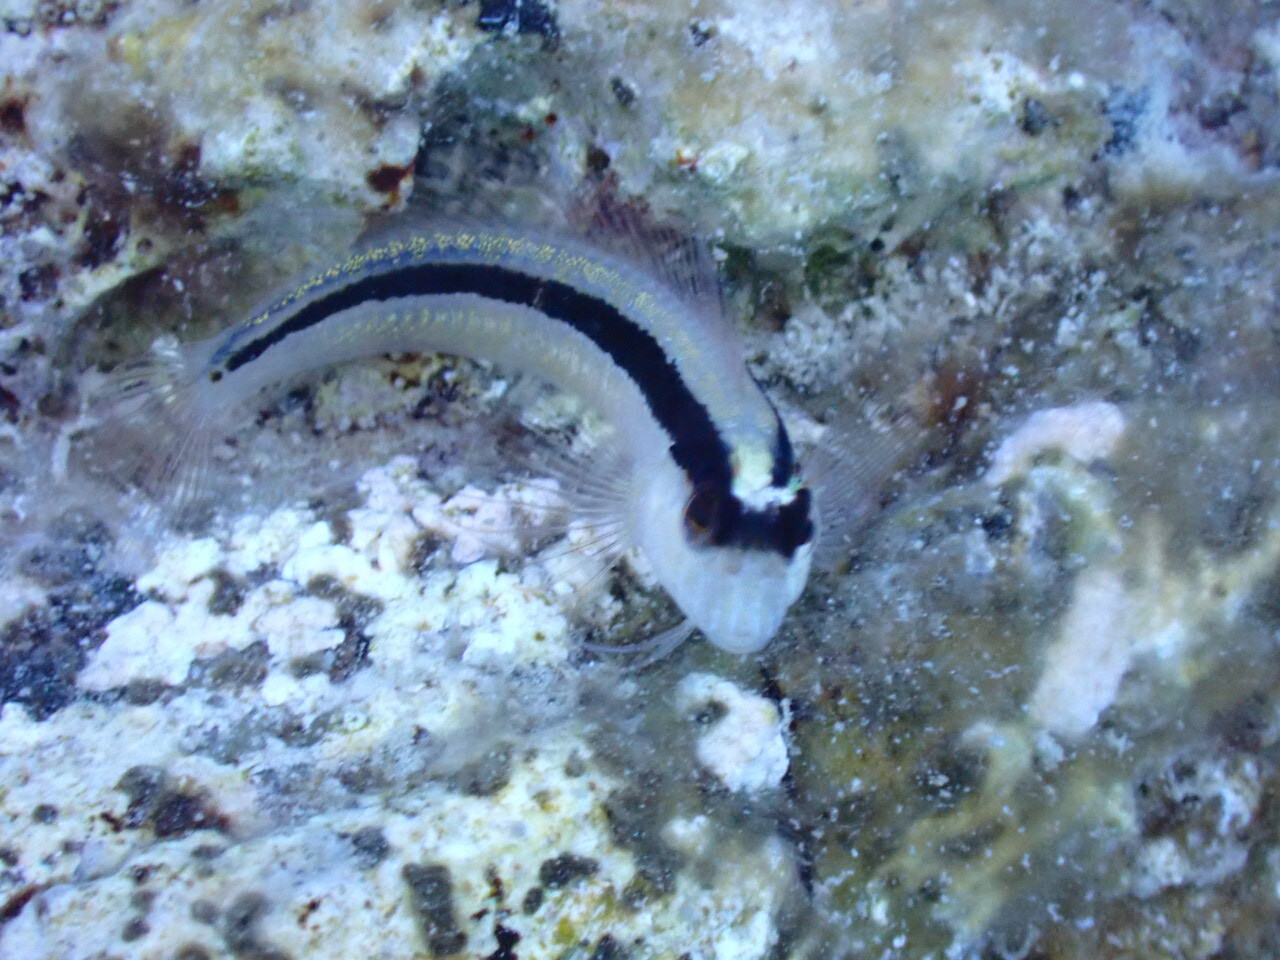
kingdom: Animalia
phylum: Chordata
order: Perciformes
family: Blenniidae
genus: Parablennius
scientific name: Parablennius rouxi
